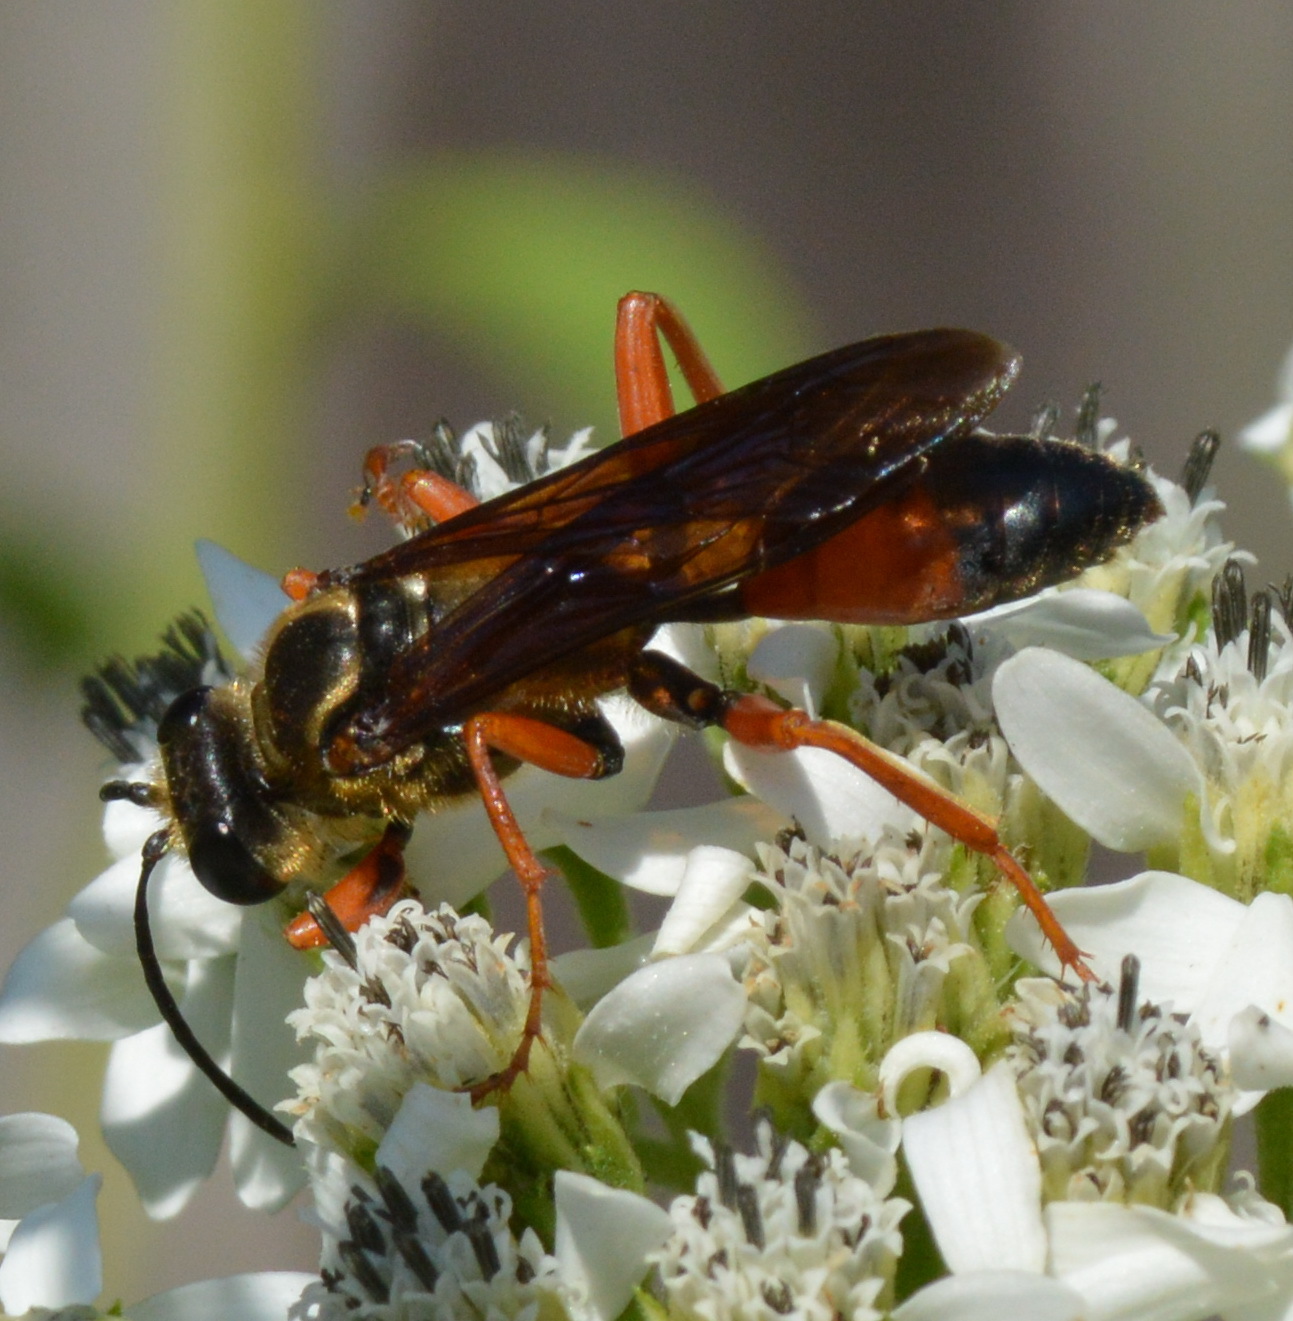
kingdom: Animalia
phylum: Arthropoda
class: Insecta
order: Hymenoptera
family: Sphecidae
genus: Sphex
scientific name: Sphex ichneumoneus
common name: Great golden digger wasp
